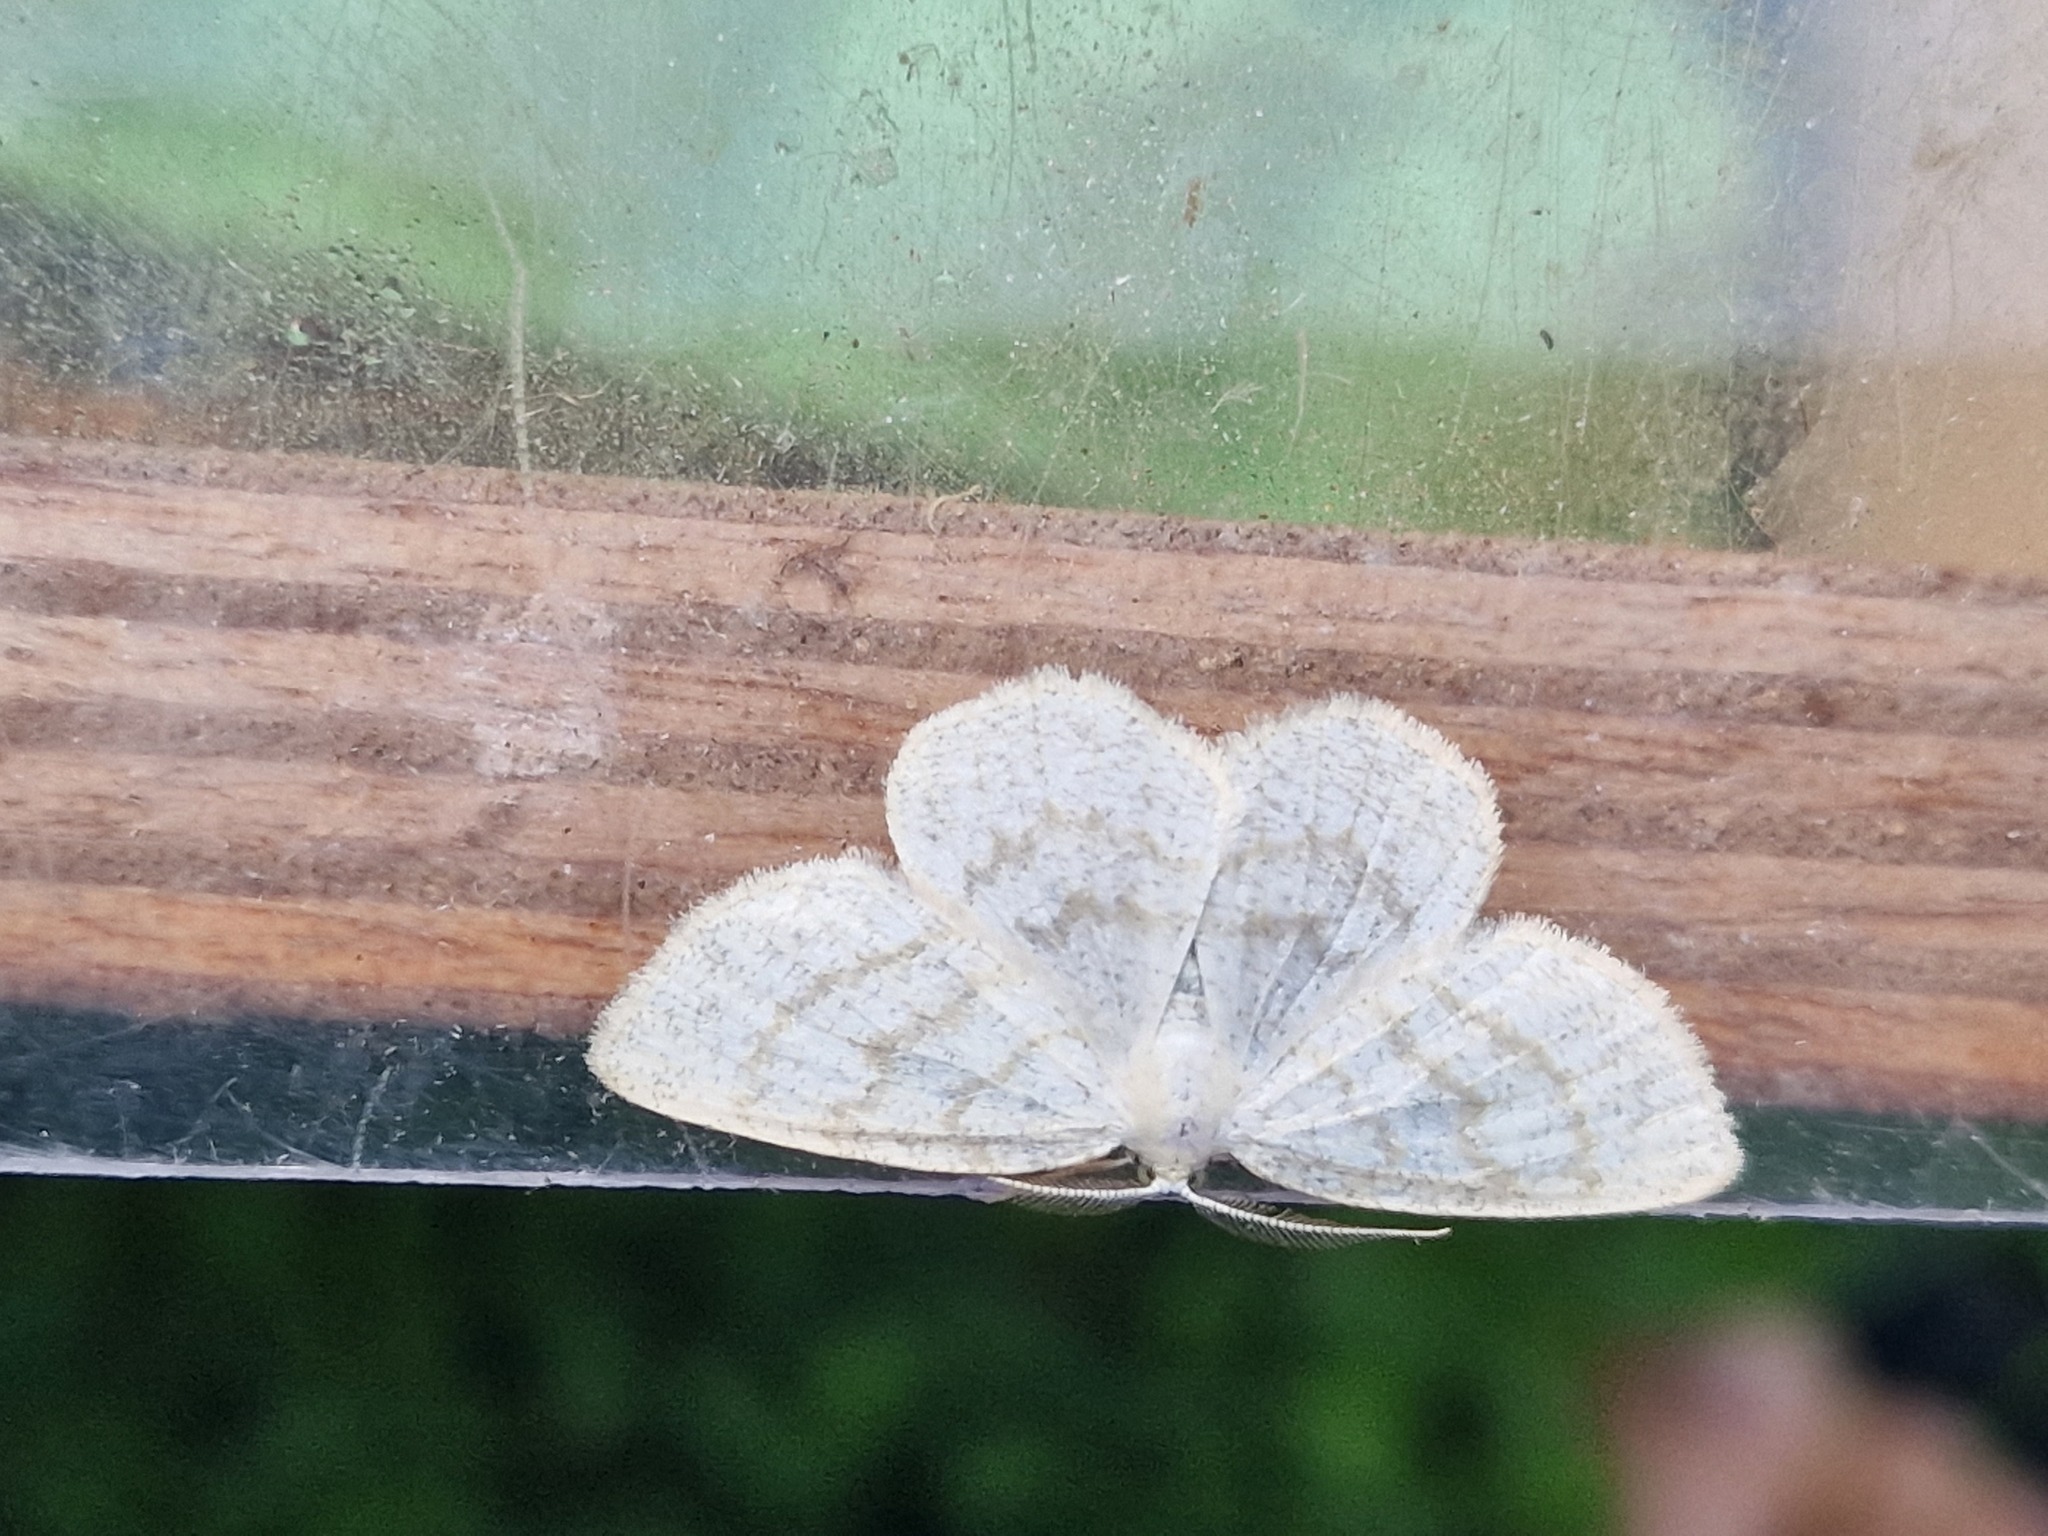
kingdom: Animalia
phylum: Arthropoda
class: Insecta
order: Lepidoptera
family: Geometridae
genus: Cabera
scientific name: Cabera exanthemata
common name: Common wave
